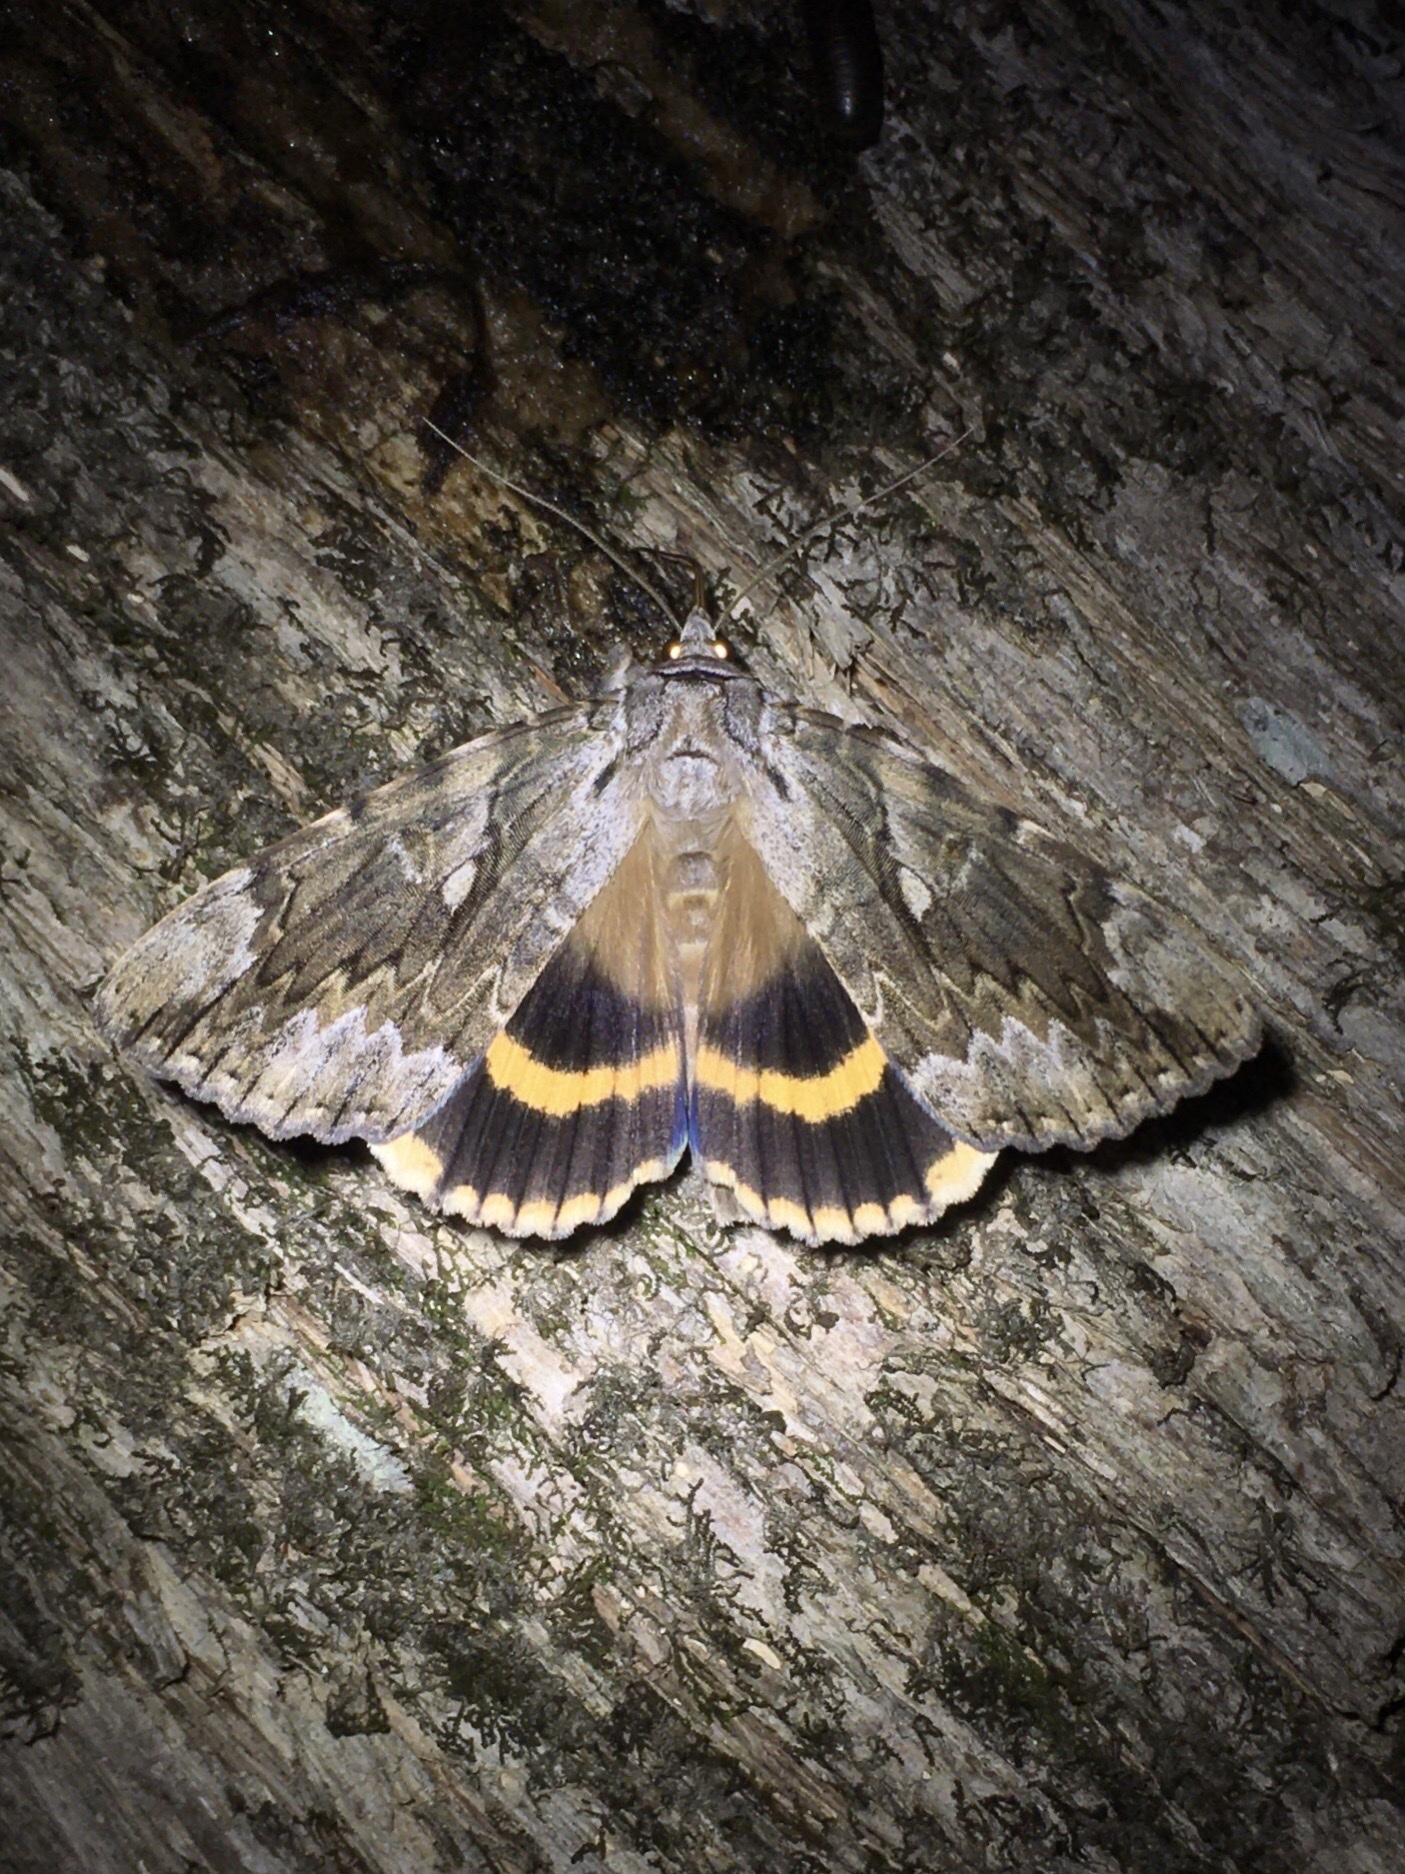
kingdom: Animalia
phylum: Arthropoda
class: Insecta
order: Lepidoptera
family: Erebidae
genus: Catocala
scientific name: Catocala cerogama
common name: Yellow banded underwing
